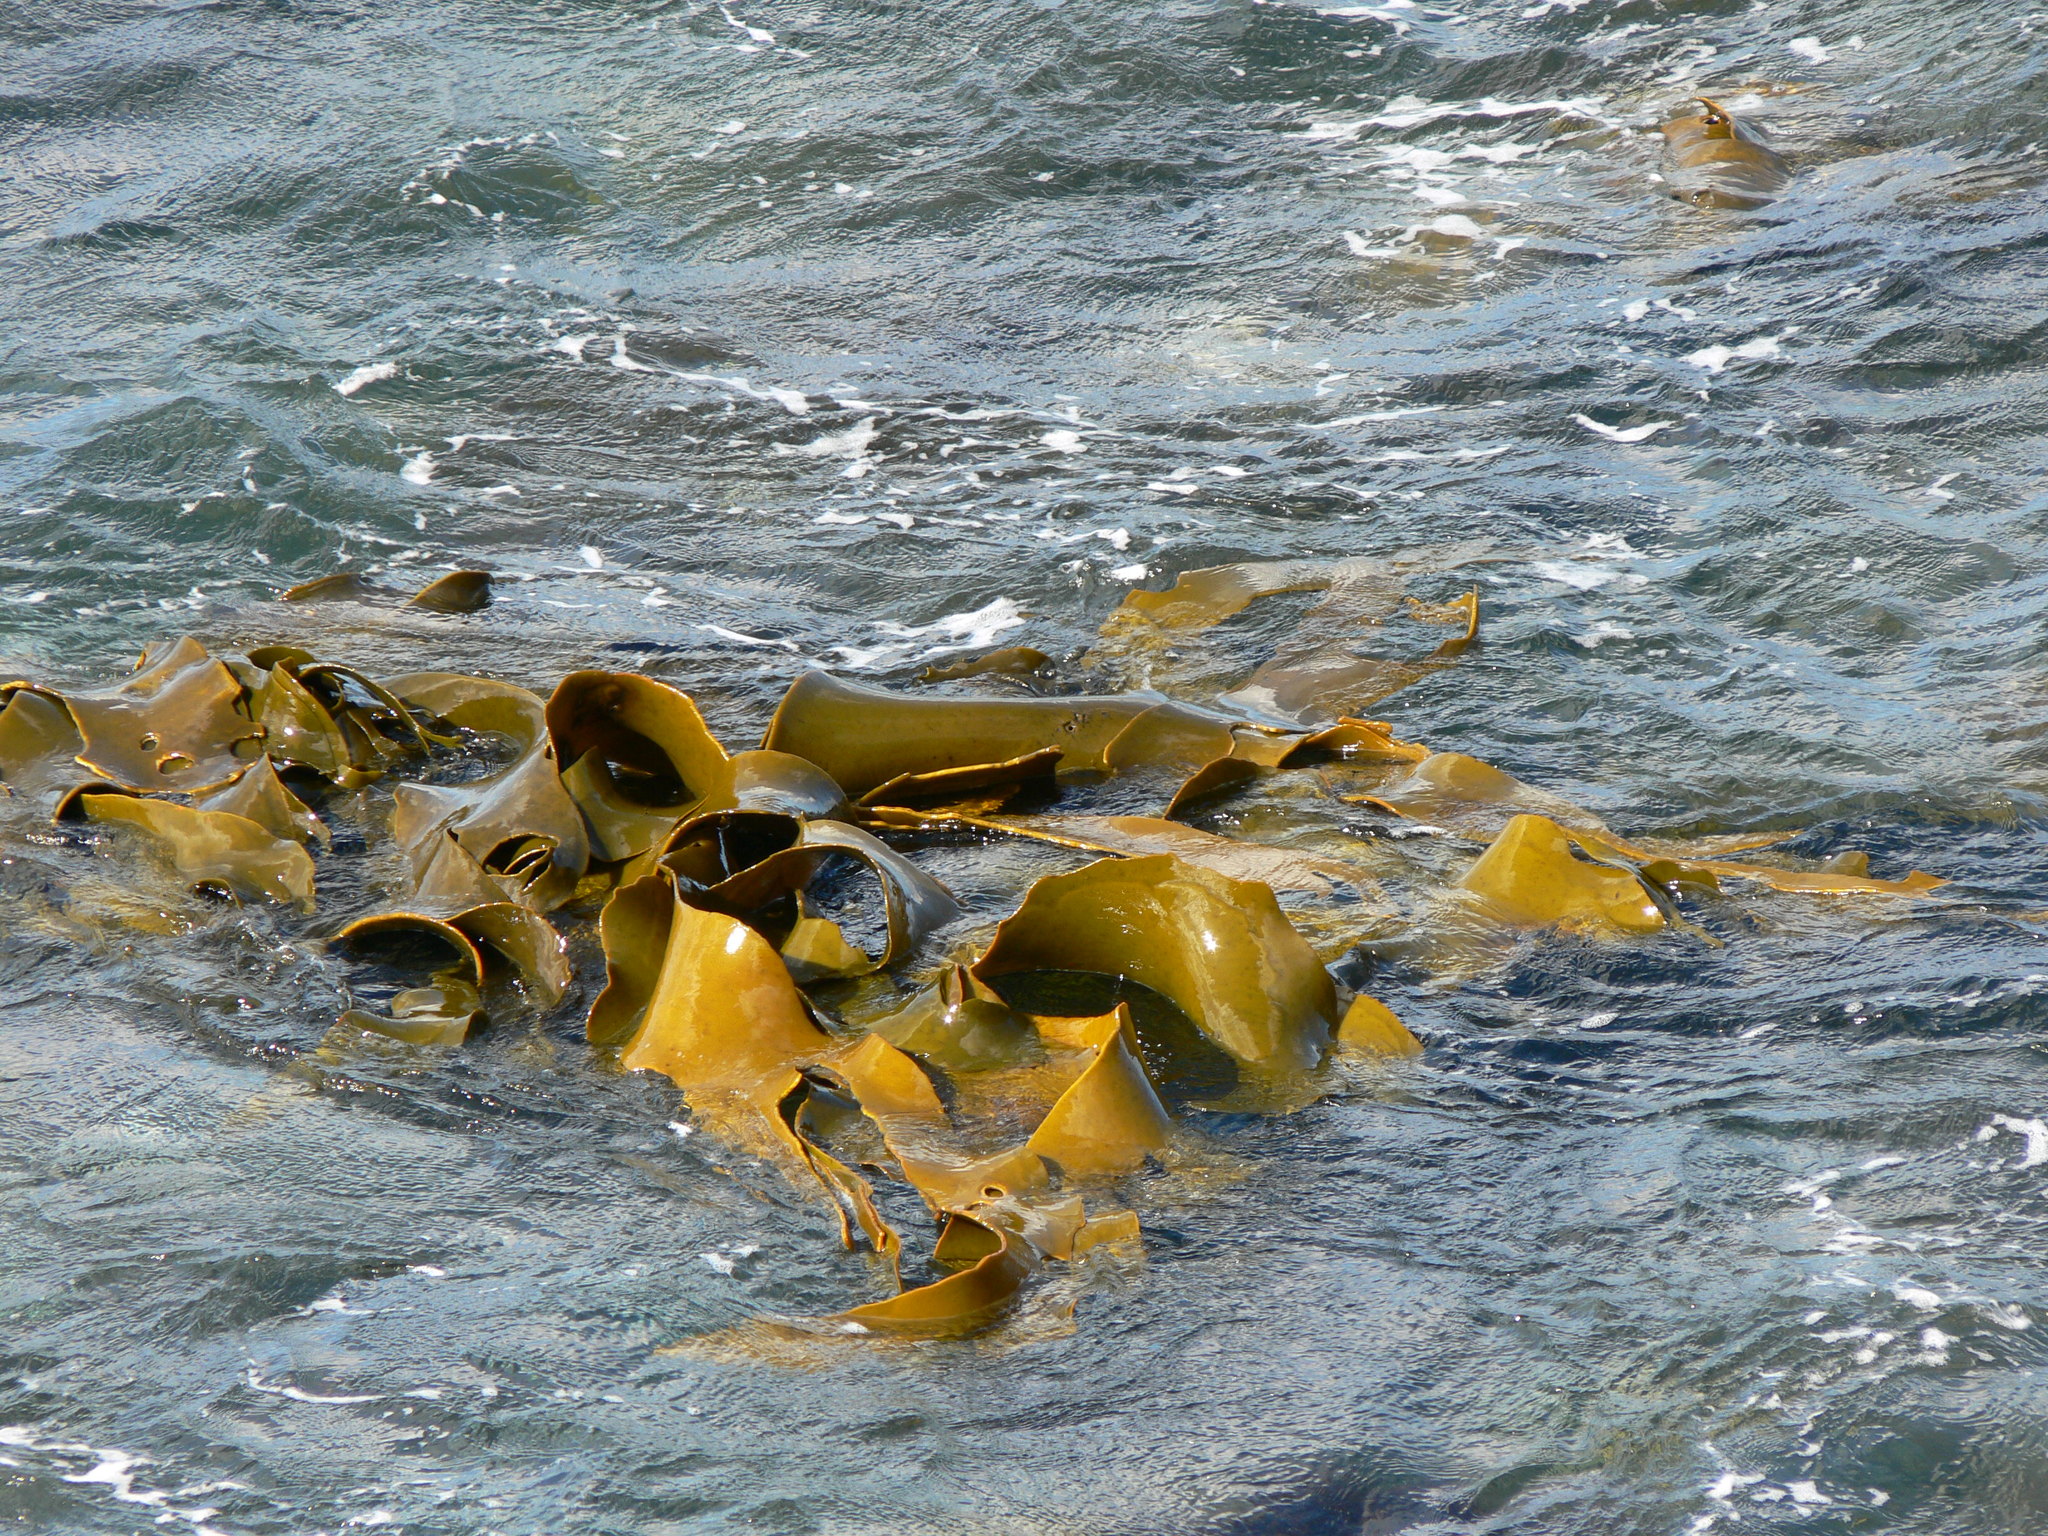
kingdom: Chromista
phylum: Ochrophyta
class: Phaeophyceae
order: Fucales
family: Durvillaeaceae
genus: Durvillaea
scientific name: Durvillaea poha
